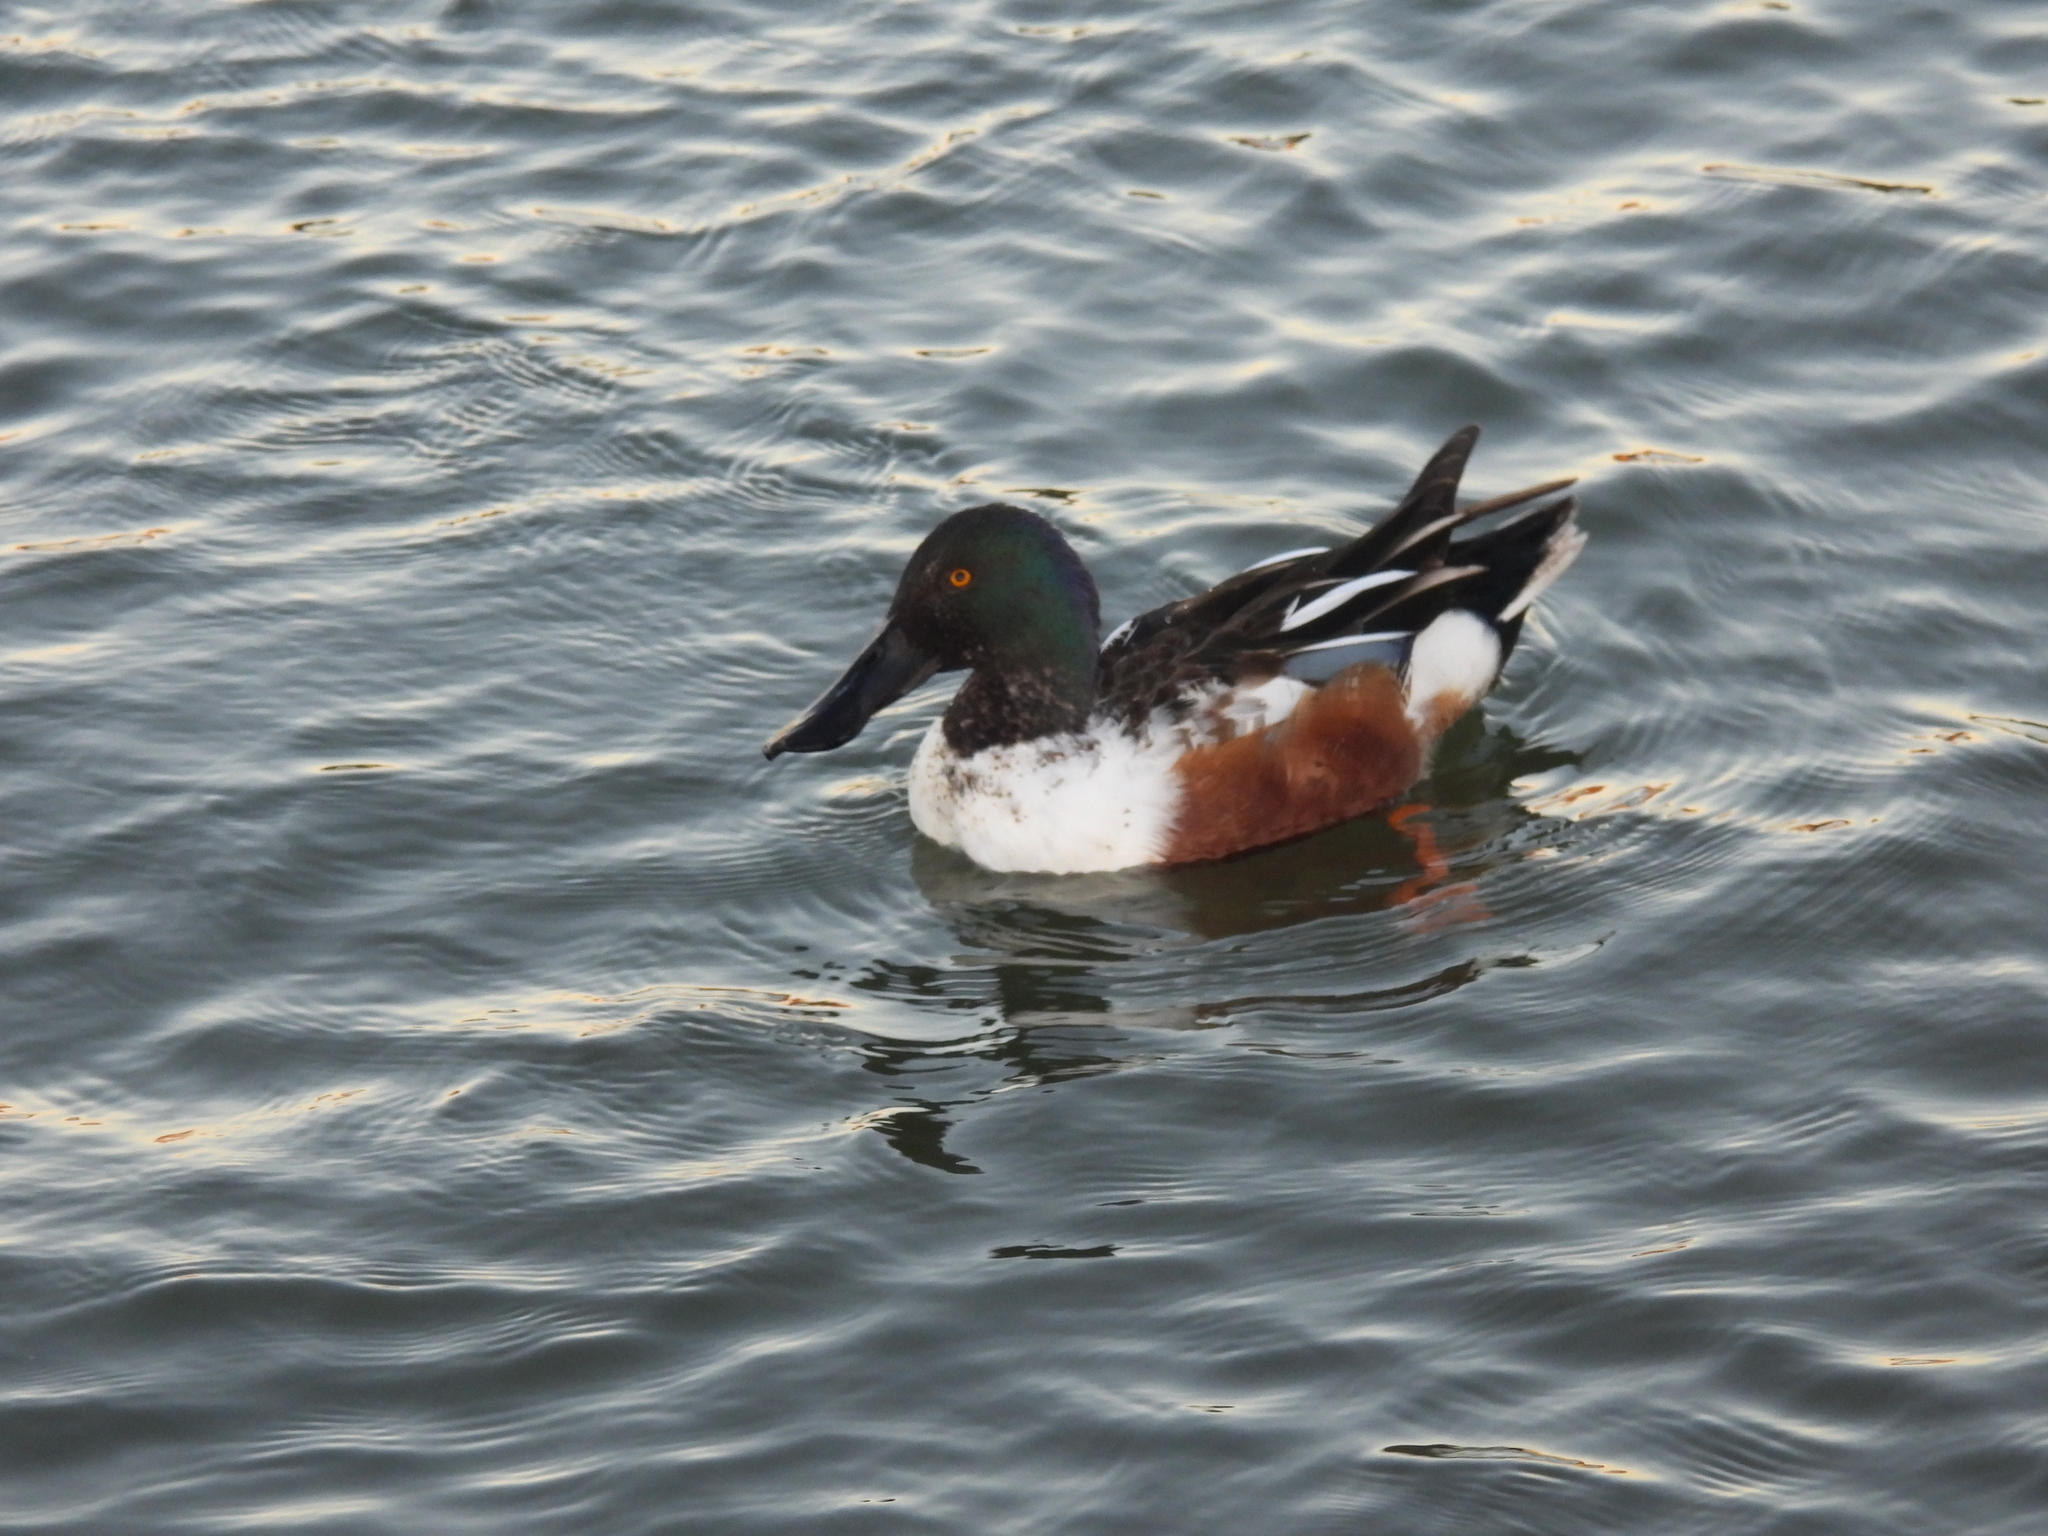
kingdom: Animalia
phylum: Chordata
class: Aves
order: Anseriformes
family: Anatidae
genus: Spatula
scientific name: Spatula clypeata
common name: Northern shoveler
